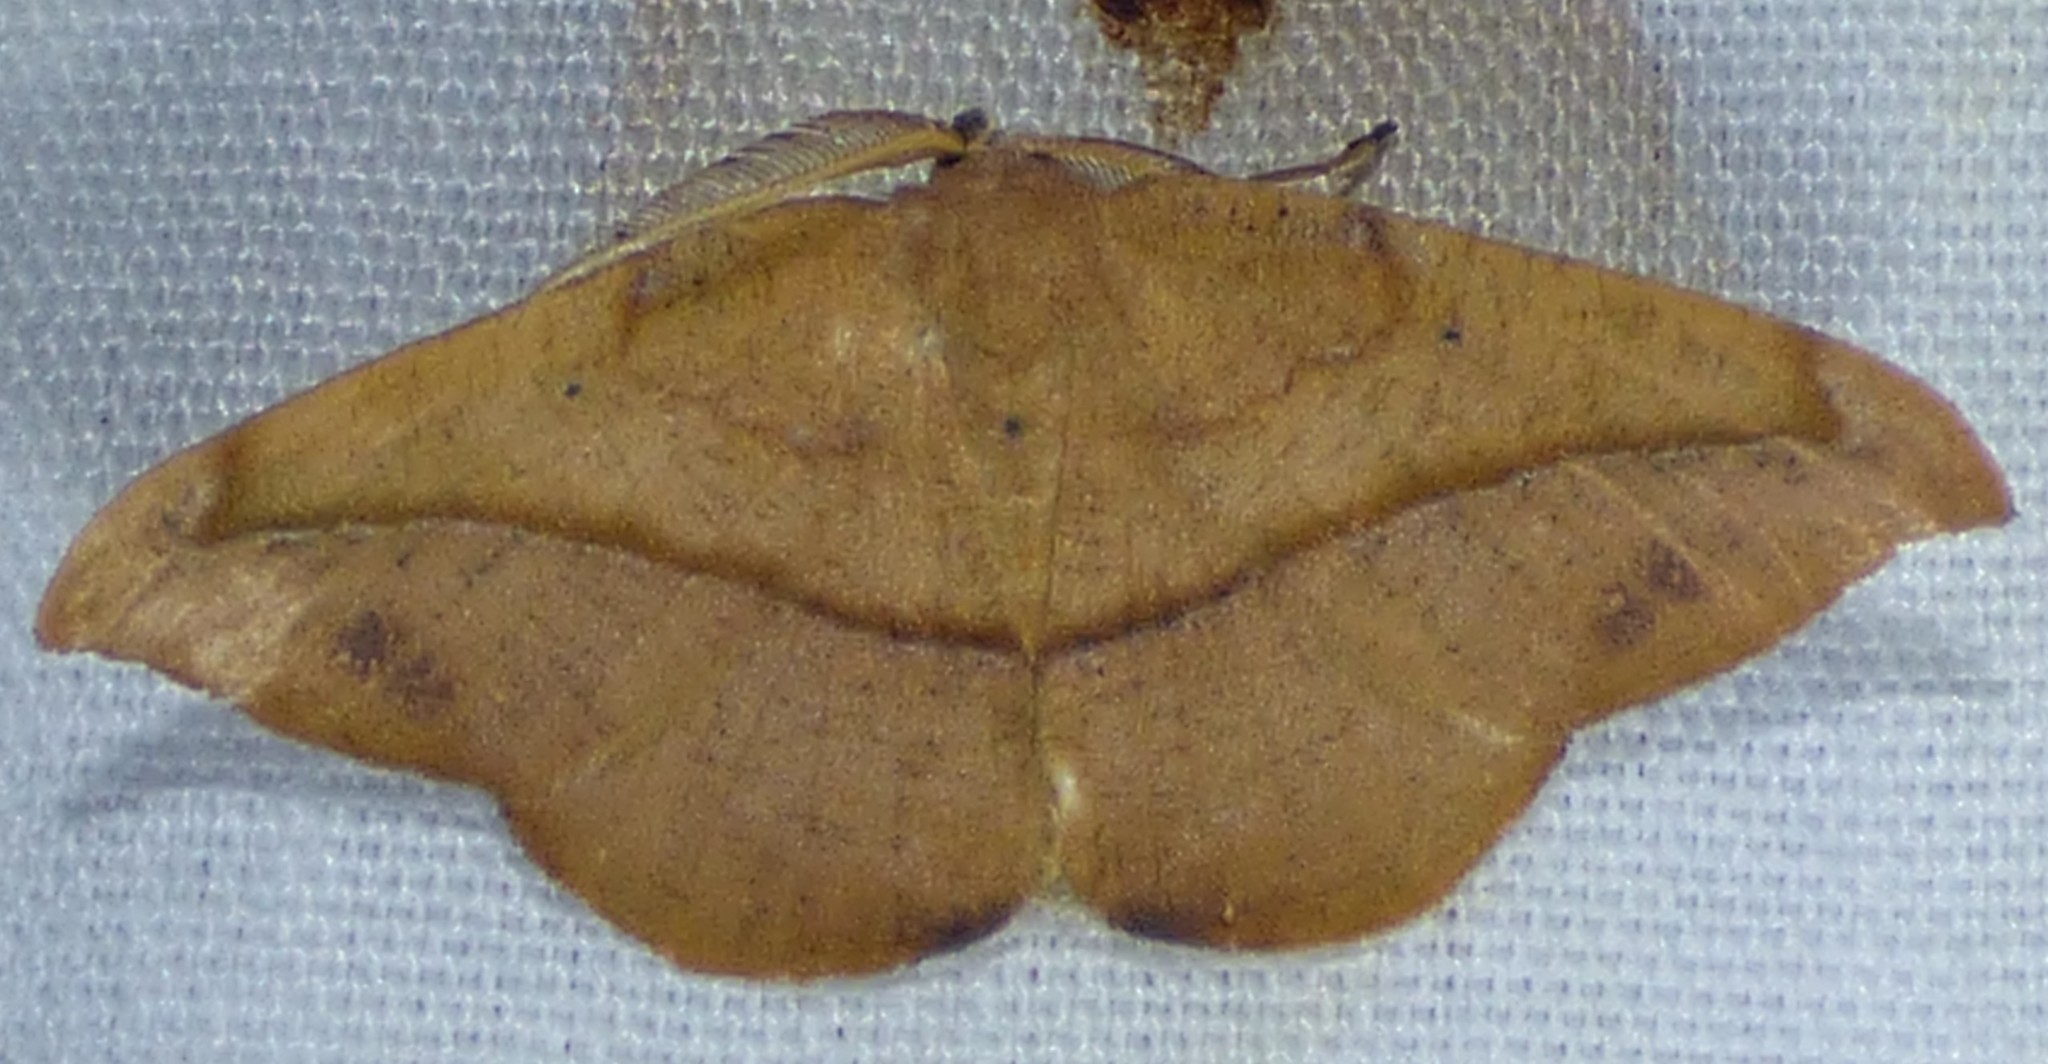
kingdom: Animalia
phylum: Arthropoda
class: Insecta
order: Lepidoptera
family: Geometridae
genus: Patalene
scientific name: Patalene olyzonaria
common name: Juniper geometer moth
